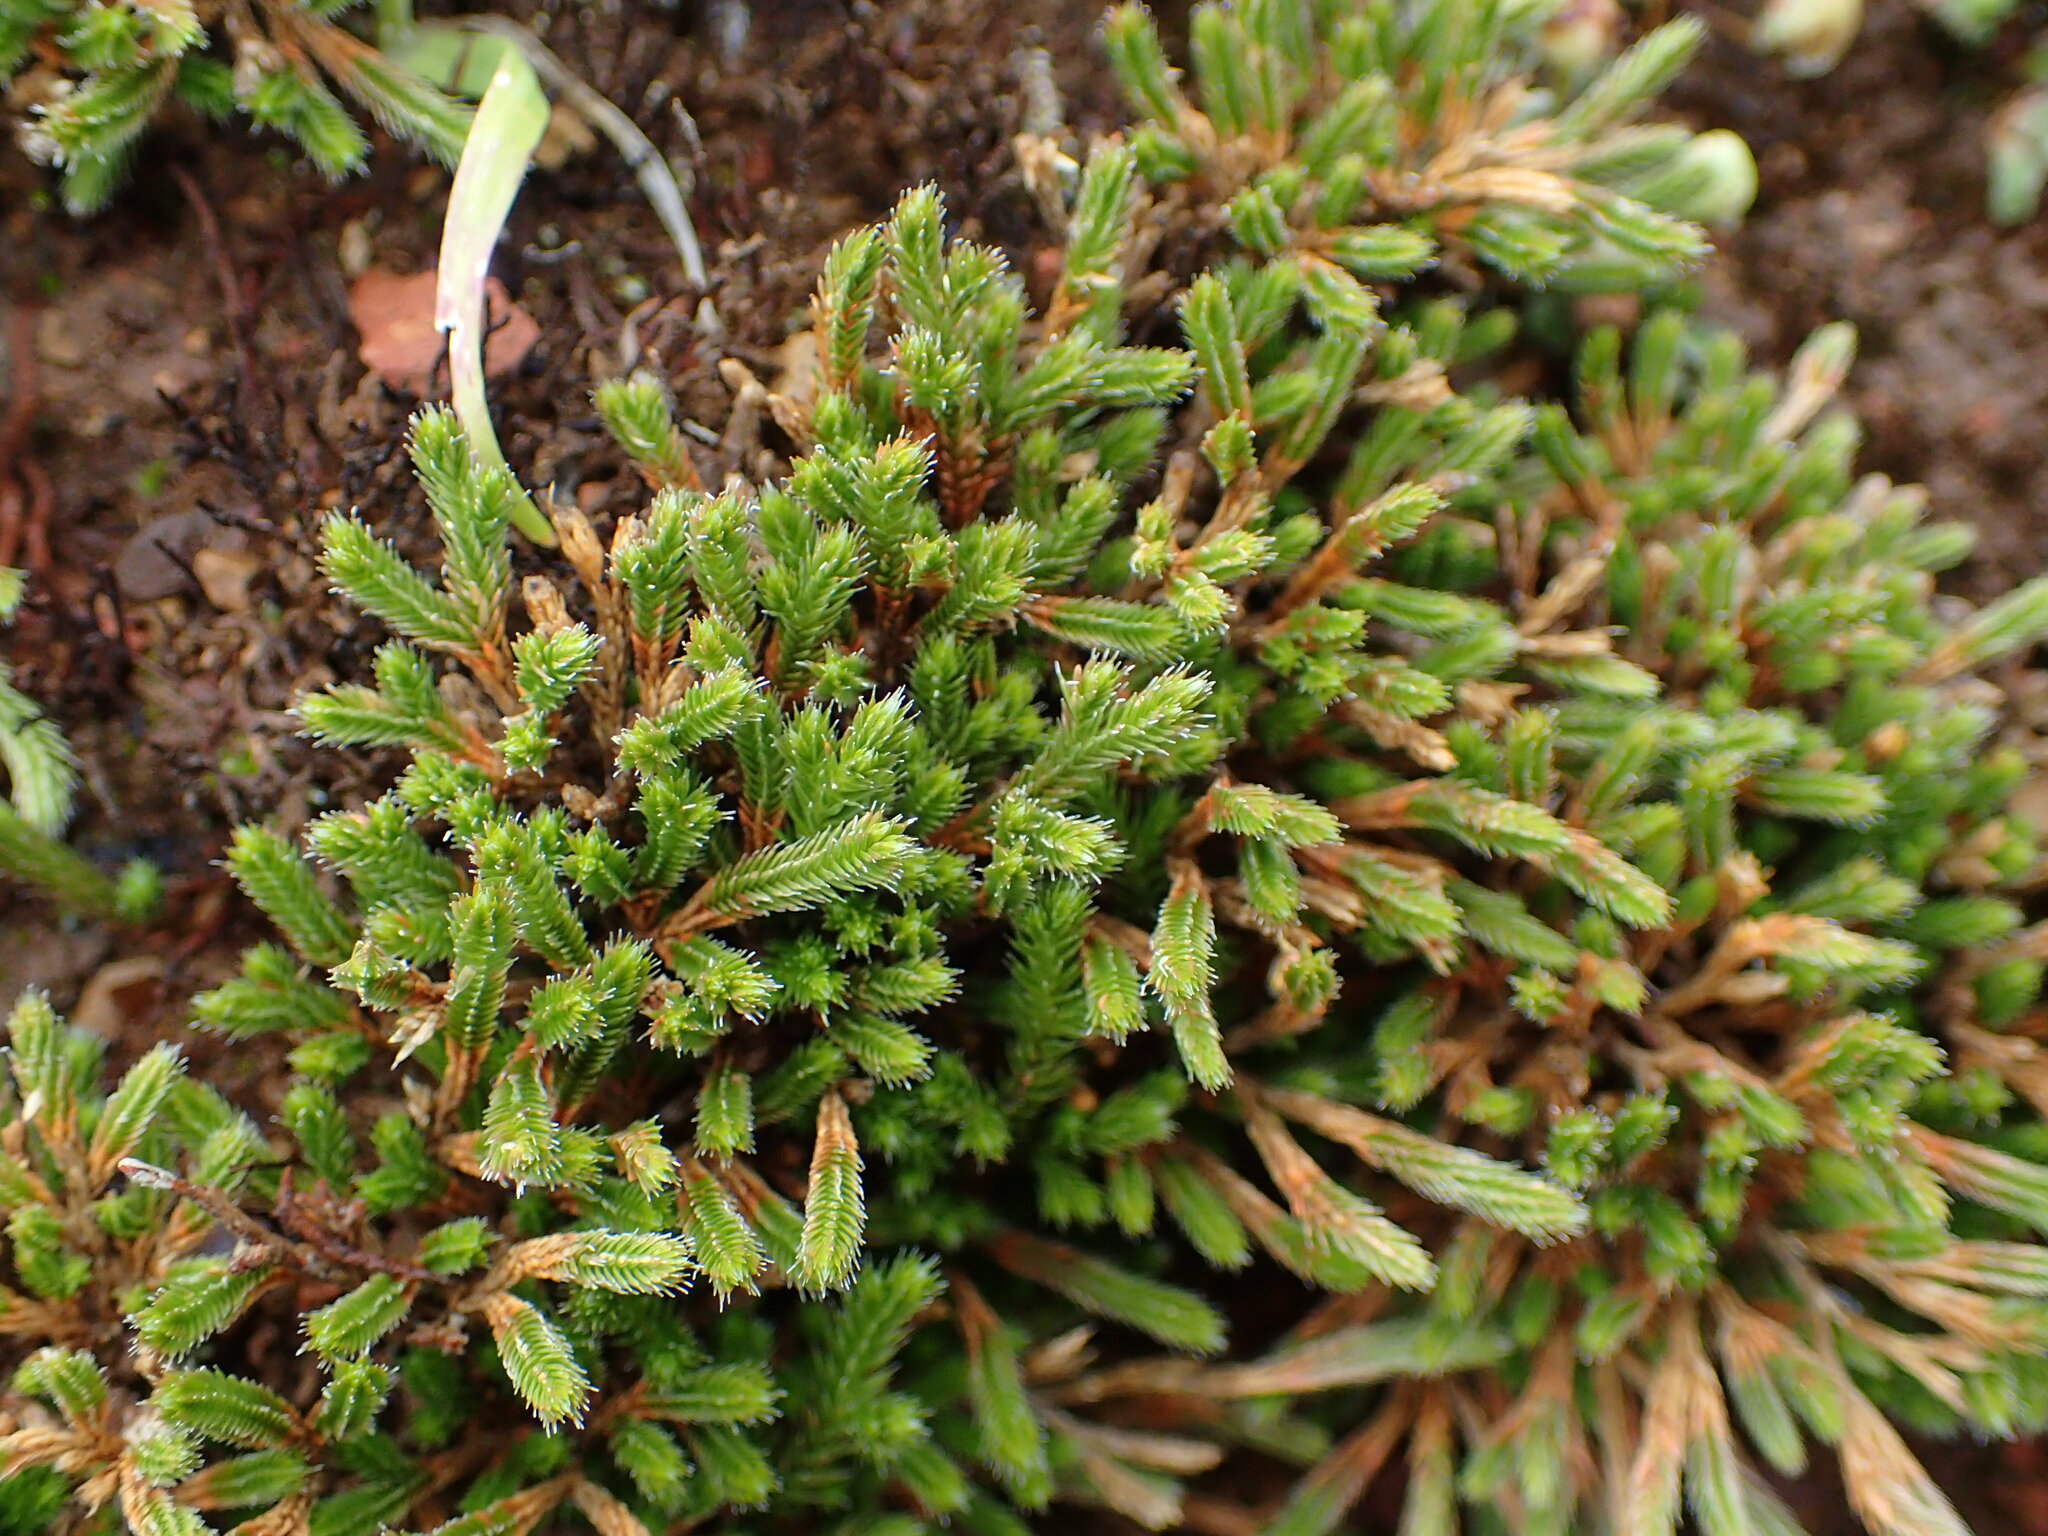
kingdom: Plantae
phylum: Tracheophyta
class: Lycopodiopsida
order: Selaginellales
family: Selaginellaceae
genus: Selaginella
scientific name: Selaginella bigelovii
